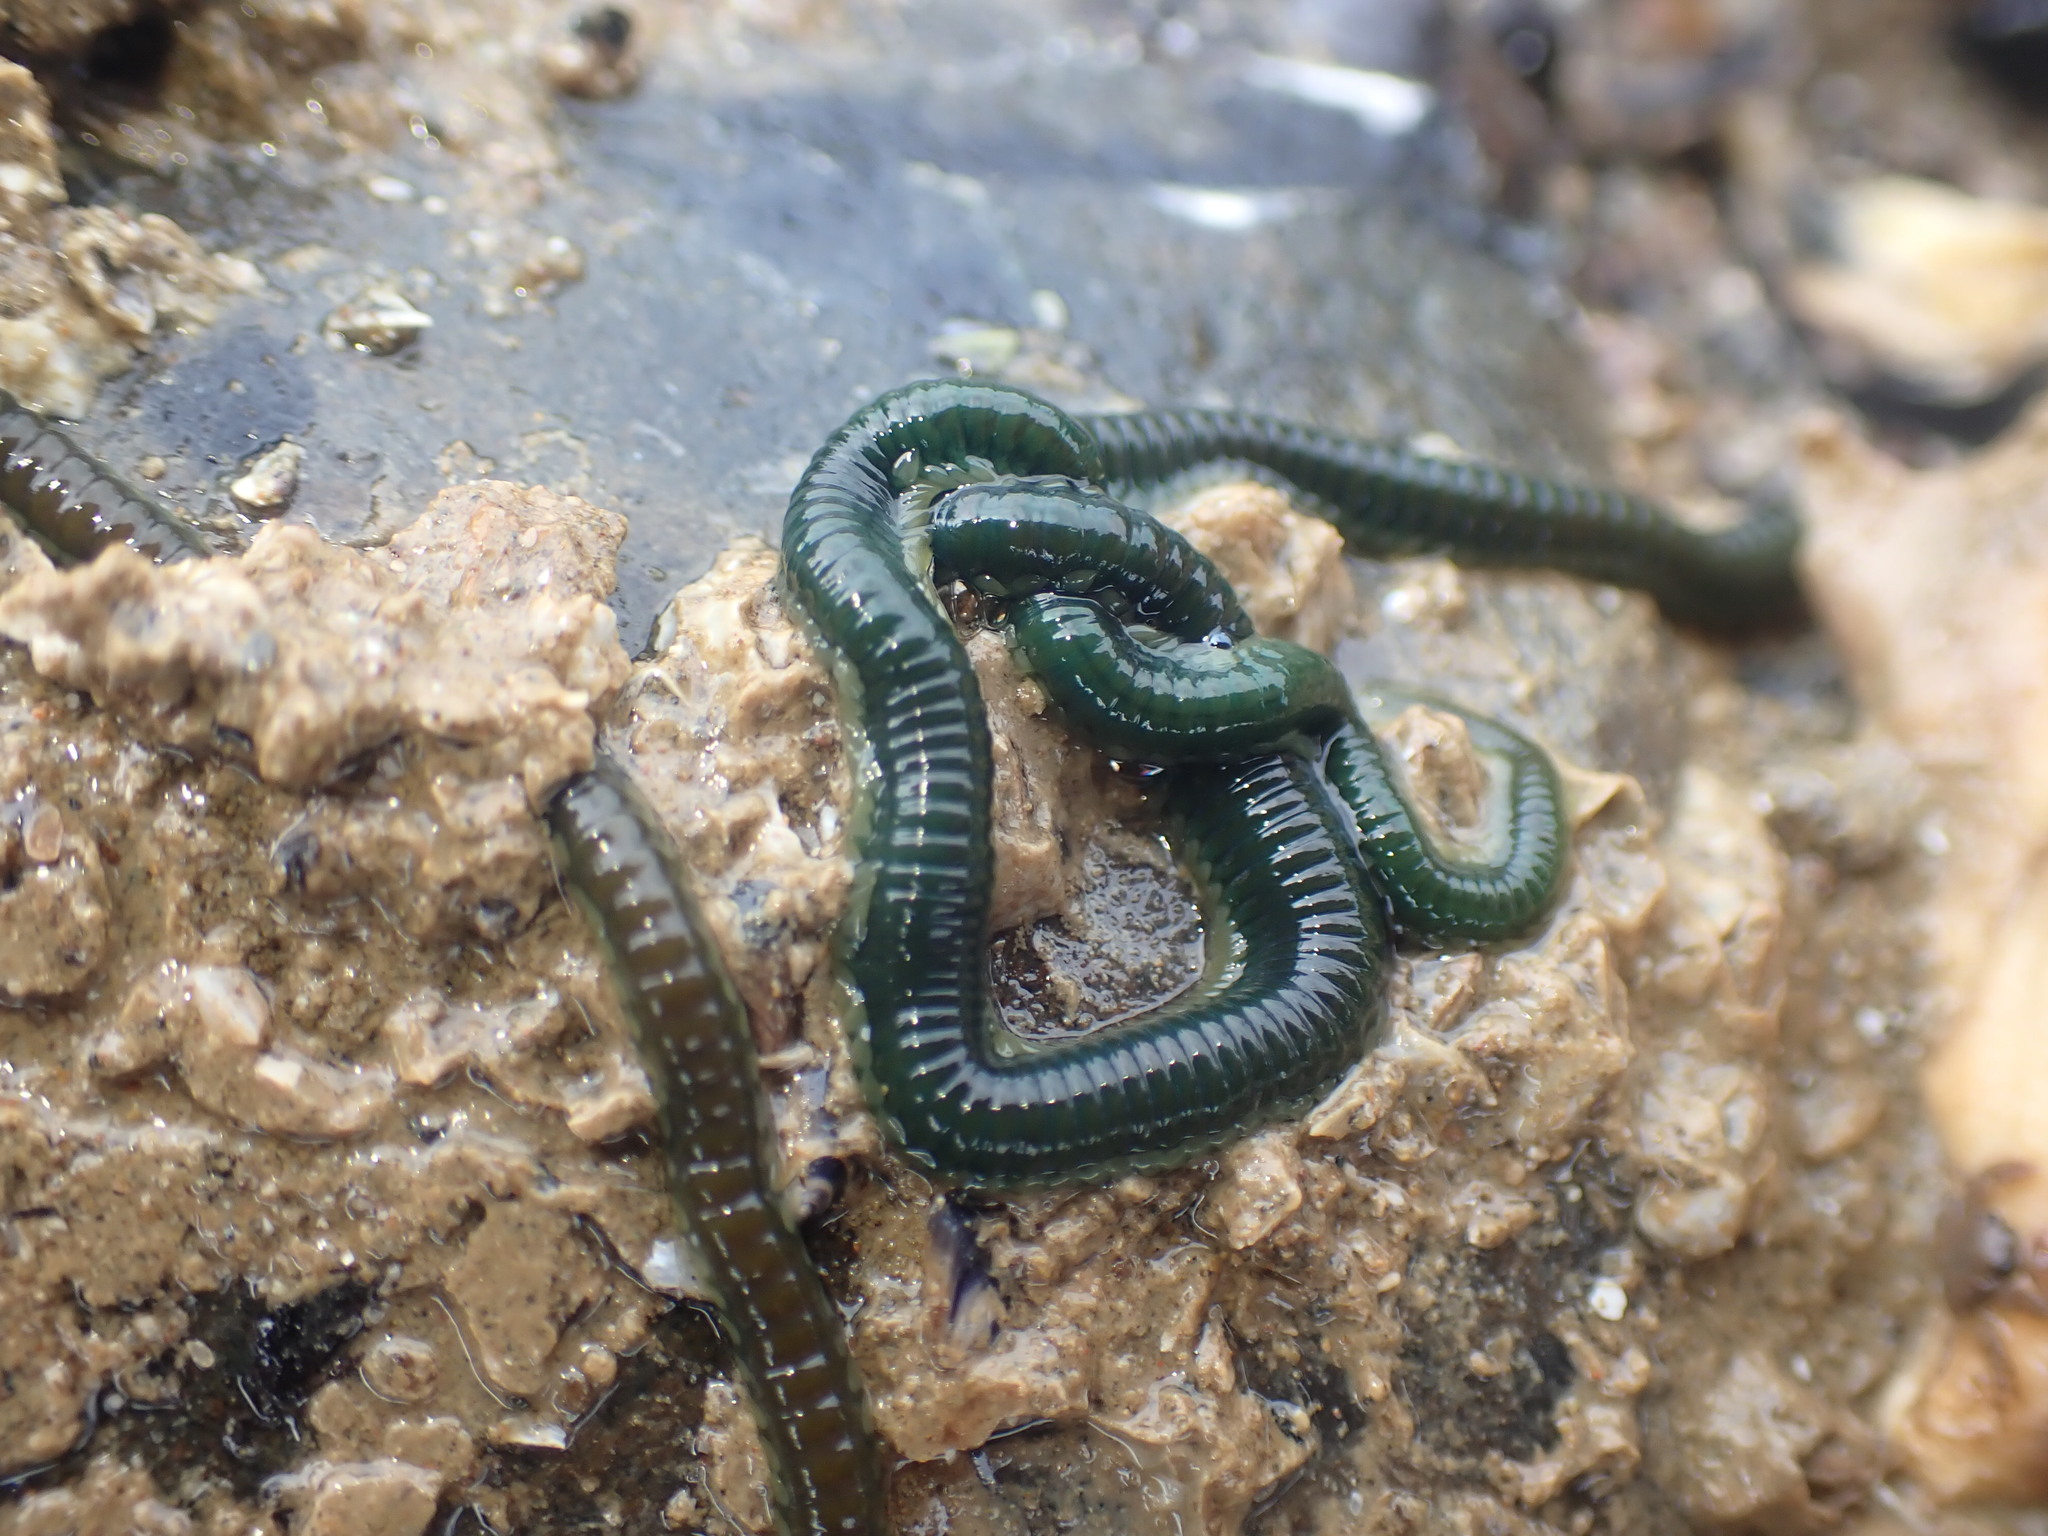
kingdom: Animalia
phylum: Annelida
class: Polychaeta
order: Phyllodocida
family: Phyllodocidae
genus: Eulalia
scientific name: Eulalia microphylla
